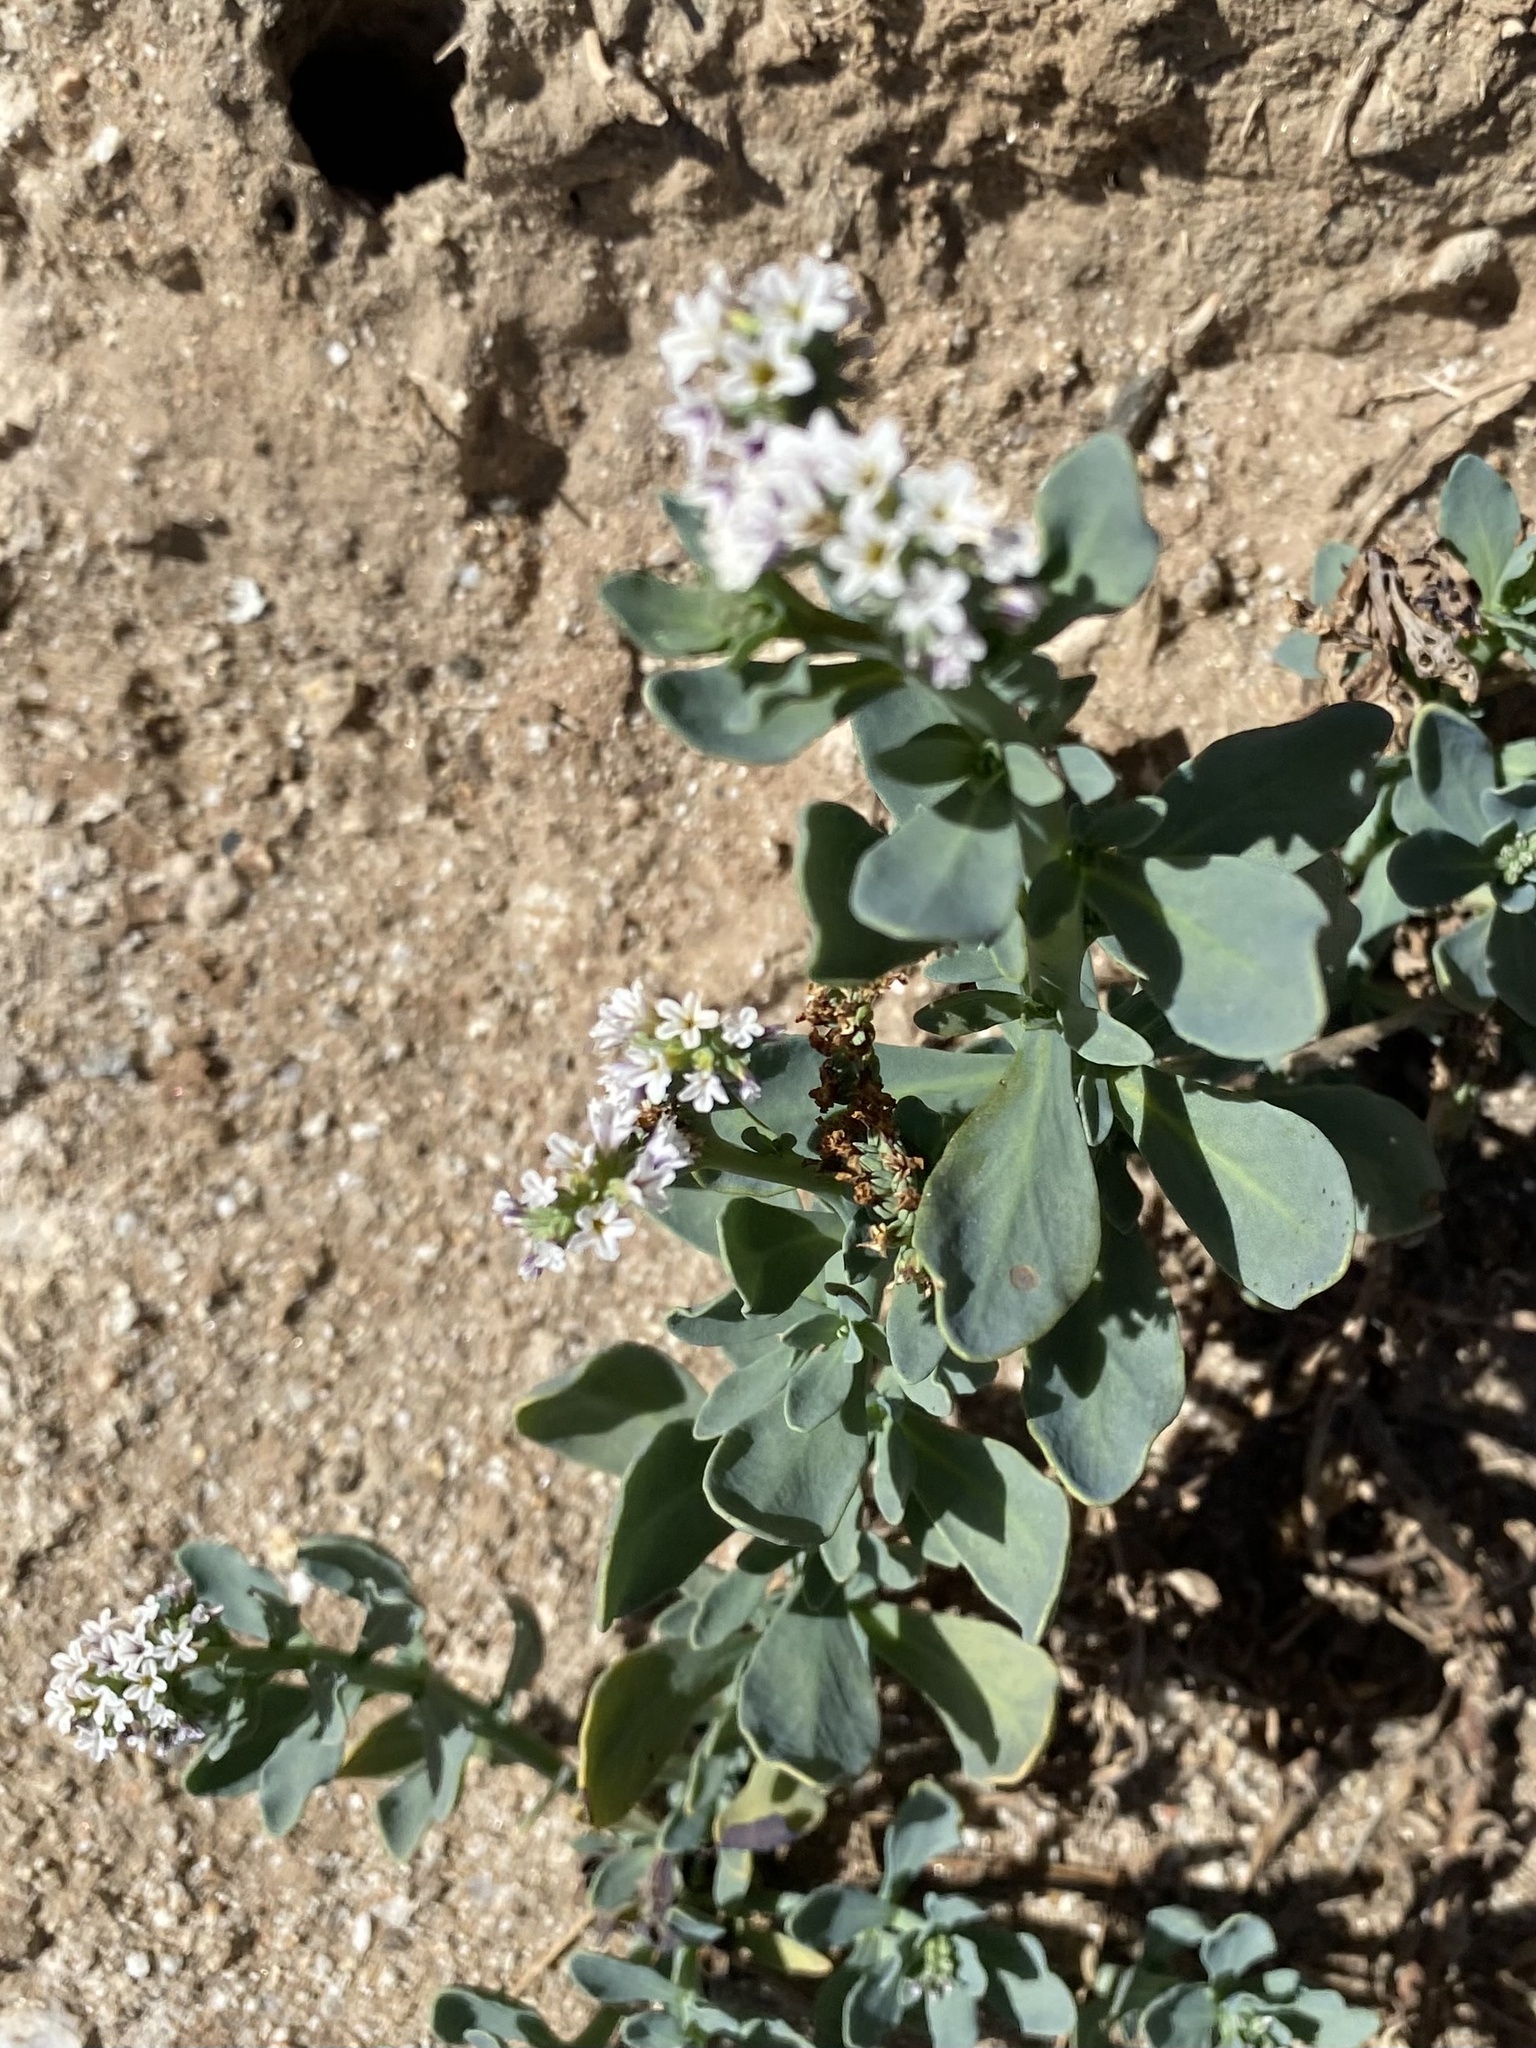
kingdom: Plantae
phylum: Tracheophyta
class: Magnoliopsida
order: Boraginales
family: Heliotropiaceae
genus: Heliotropium
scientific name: Heliotropium curassavicum
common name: Seaside heliotrope
